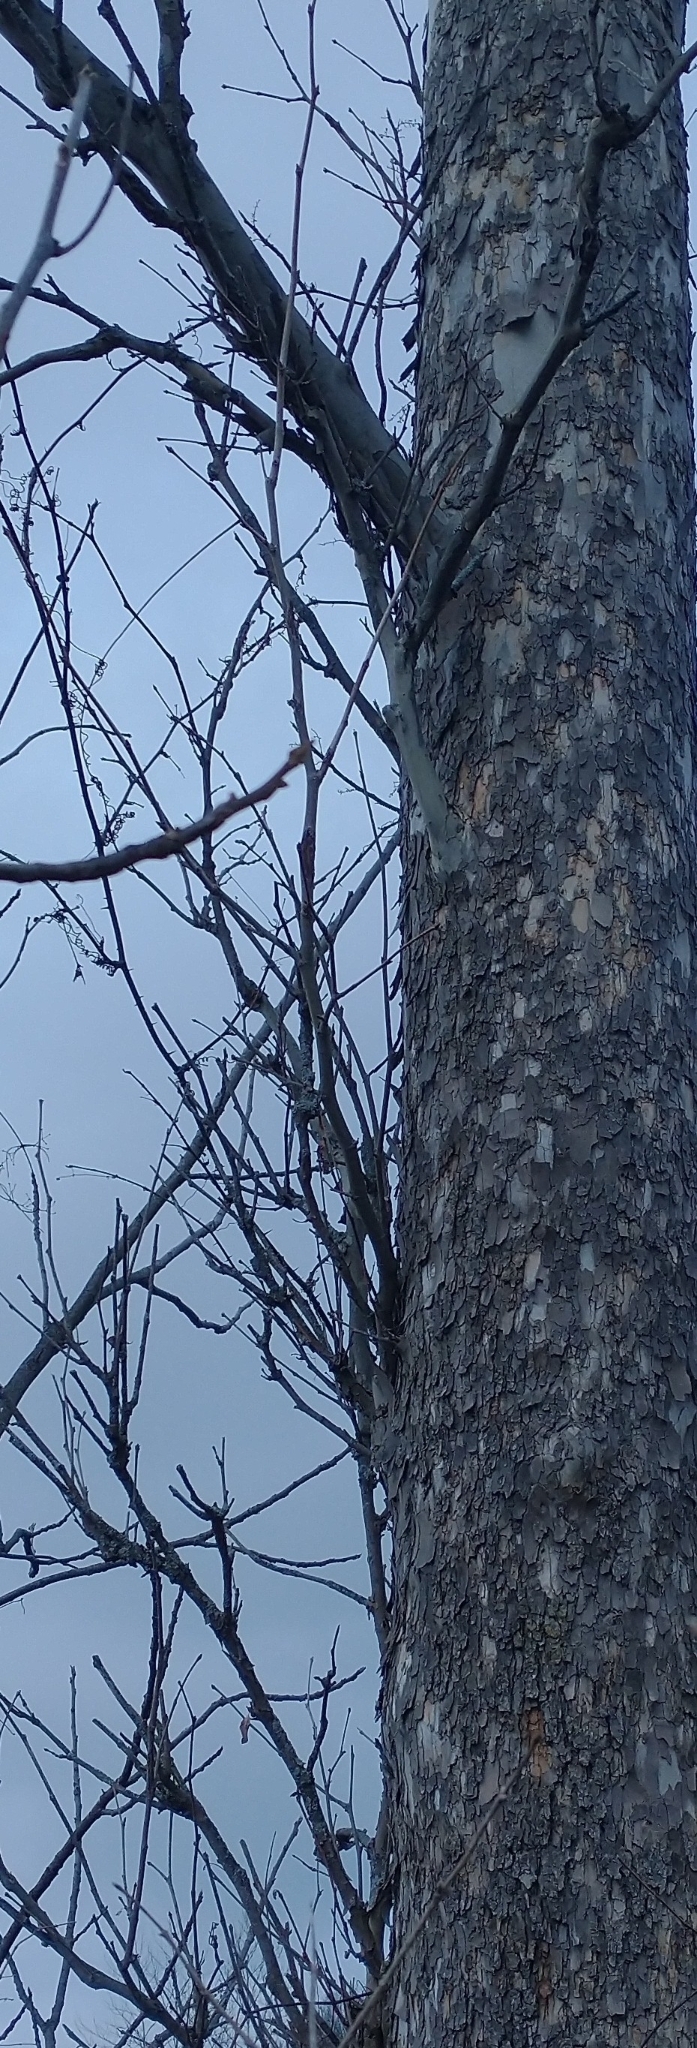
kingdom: Plantae
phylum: Tracheophyta
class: Magnoliopsida
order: Proteales
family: Platanaceae
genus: Platanus
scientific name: Platanus occidentalis
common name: American sycamore
